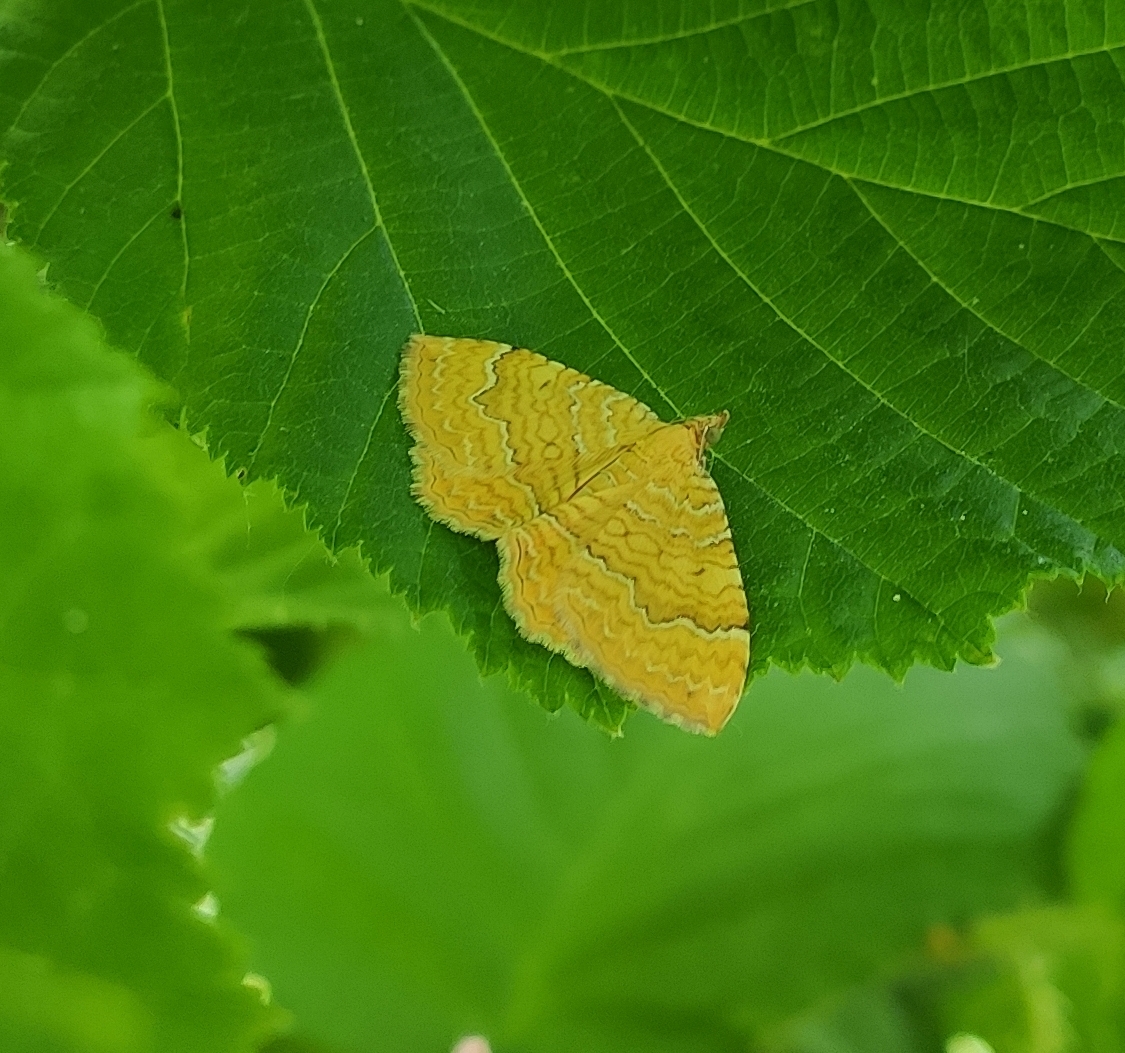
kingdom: Animalia
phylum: Arthropoda
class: Insecta
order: Lepidoptera
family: Geometridae
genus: Camptogramma
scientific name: Camptogramma bilineata
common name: Yellow shell
